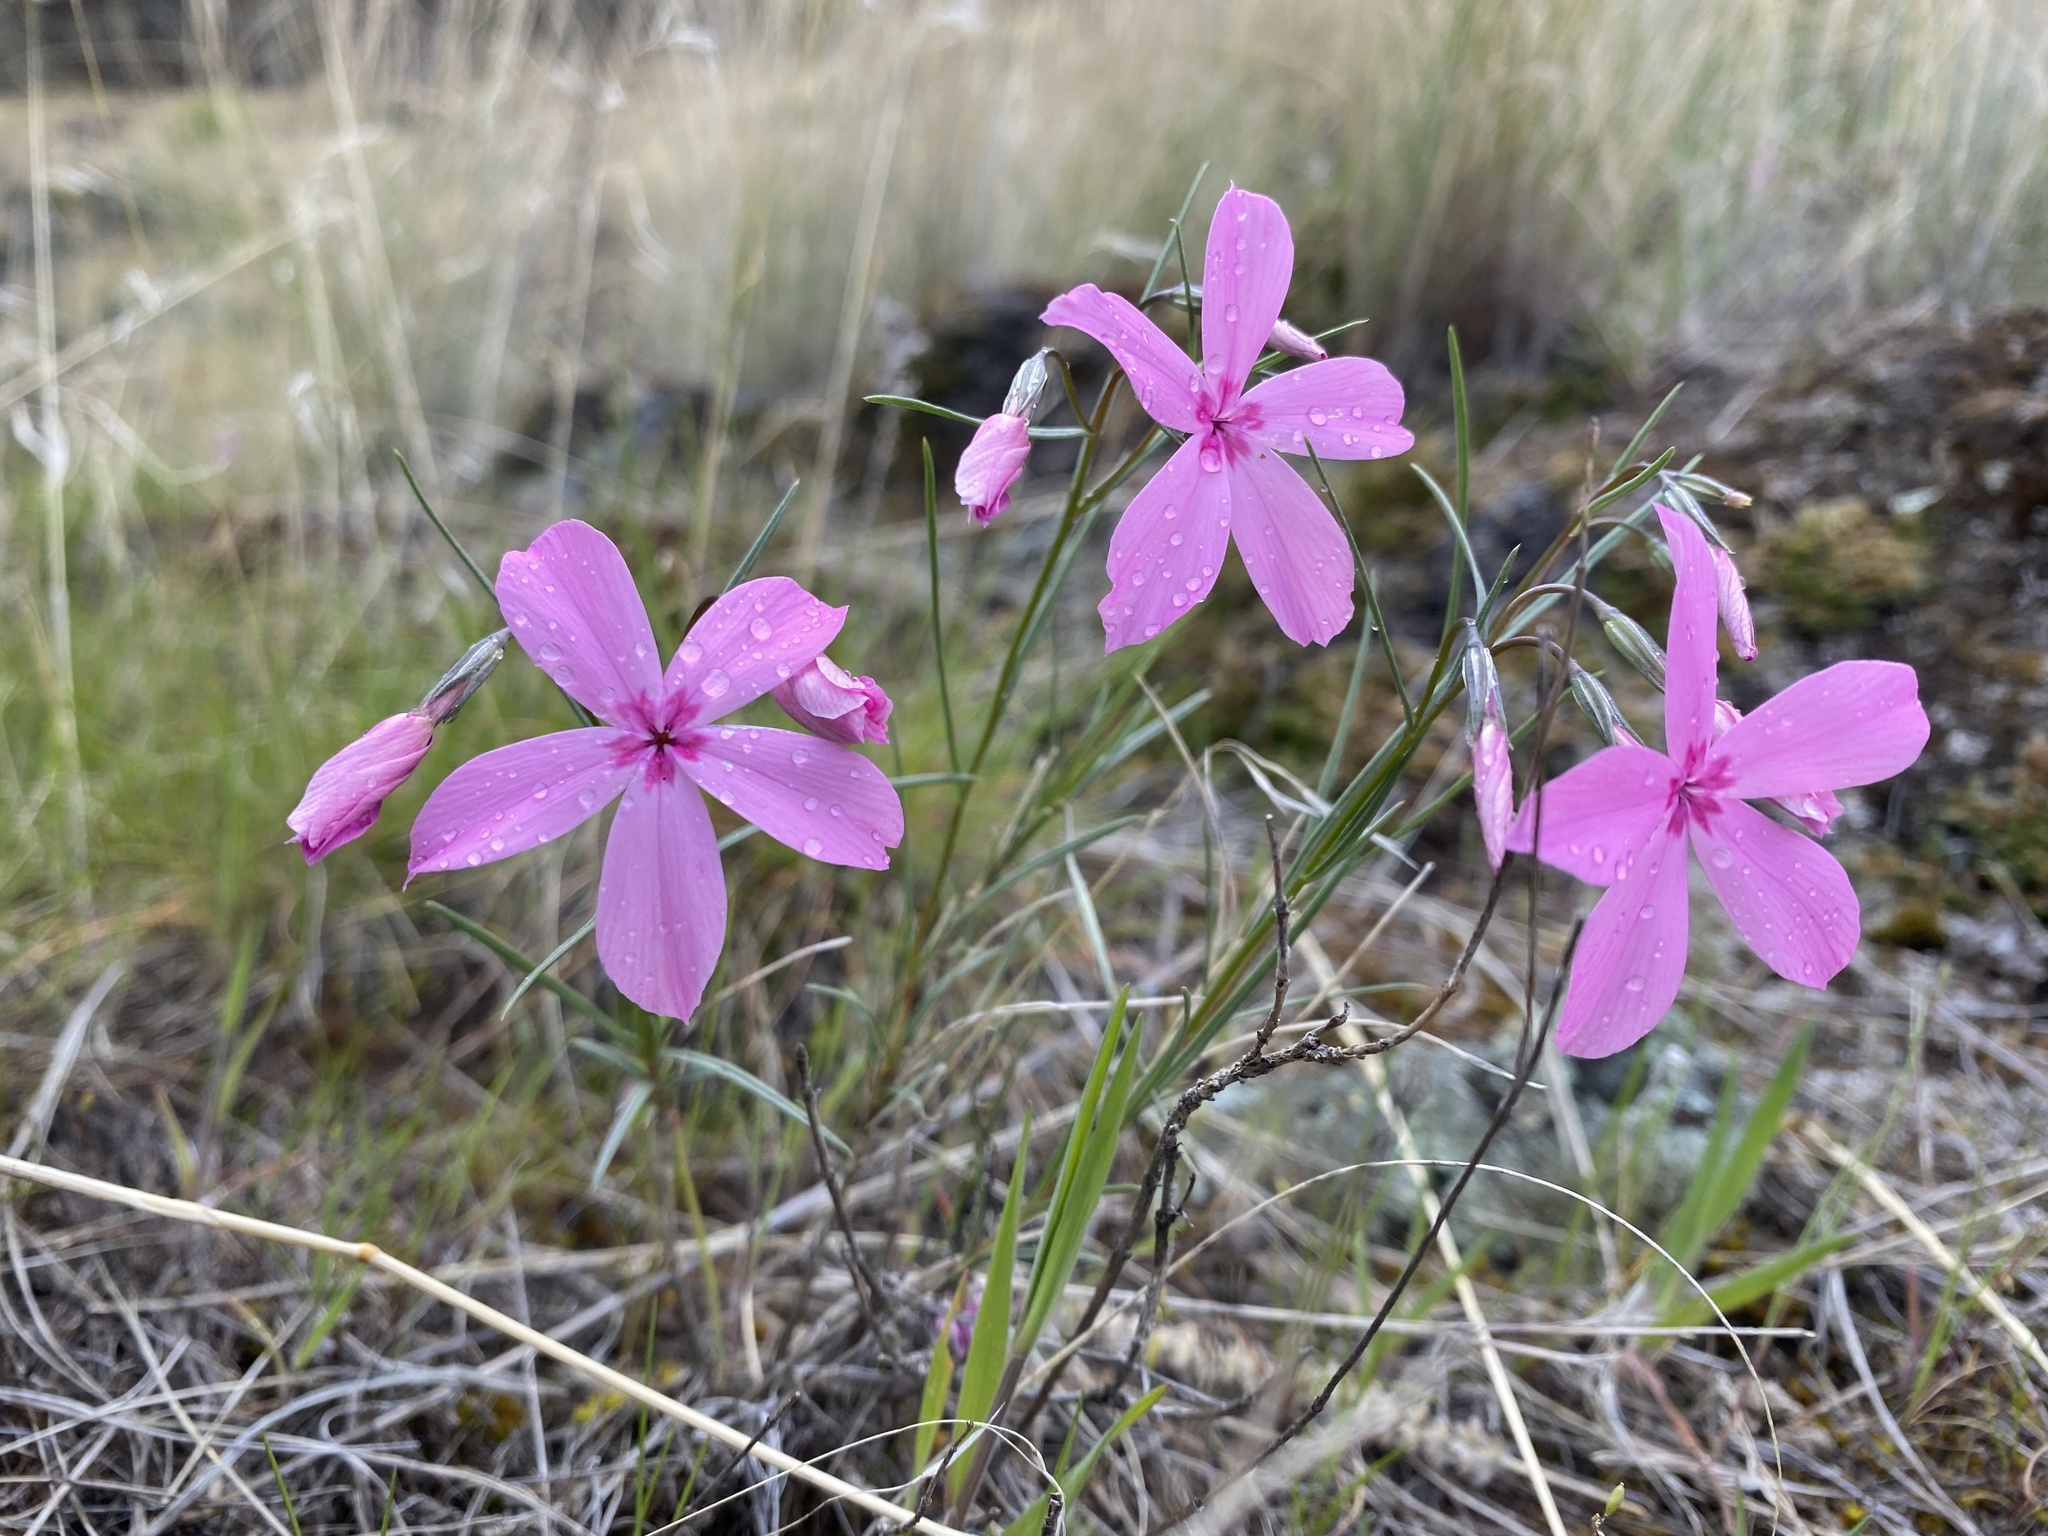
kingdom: Plantae
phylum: Tracheophyta
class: Magnoliopsida
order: Ericales
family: Polemoniaceae
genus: Phlox
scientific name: Phlox colubrina
